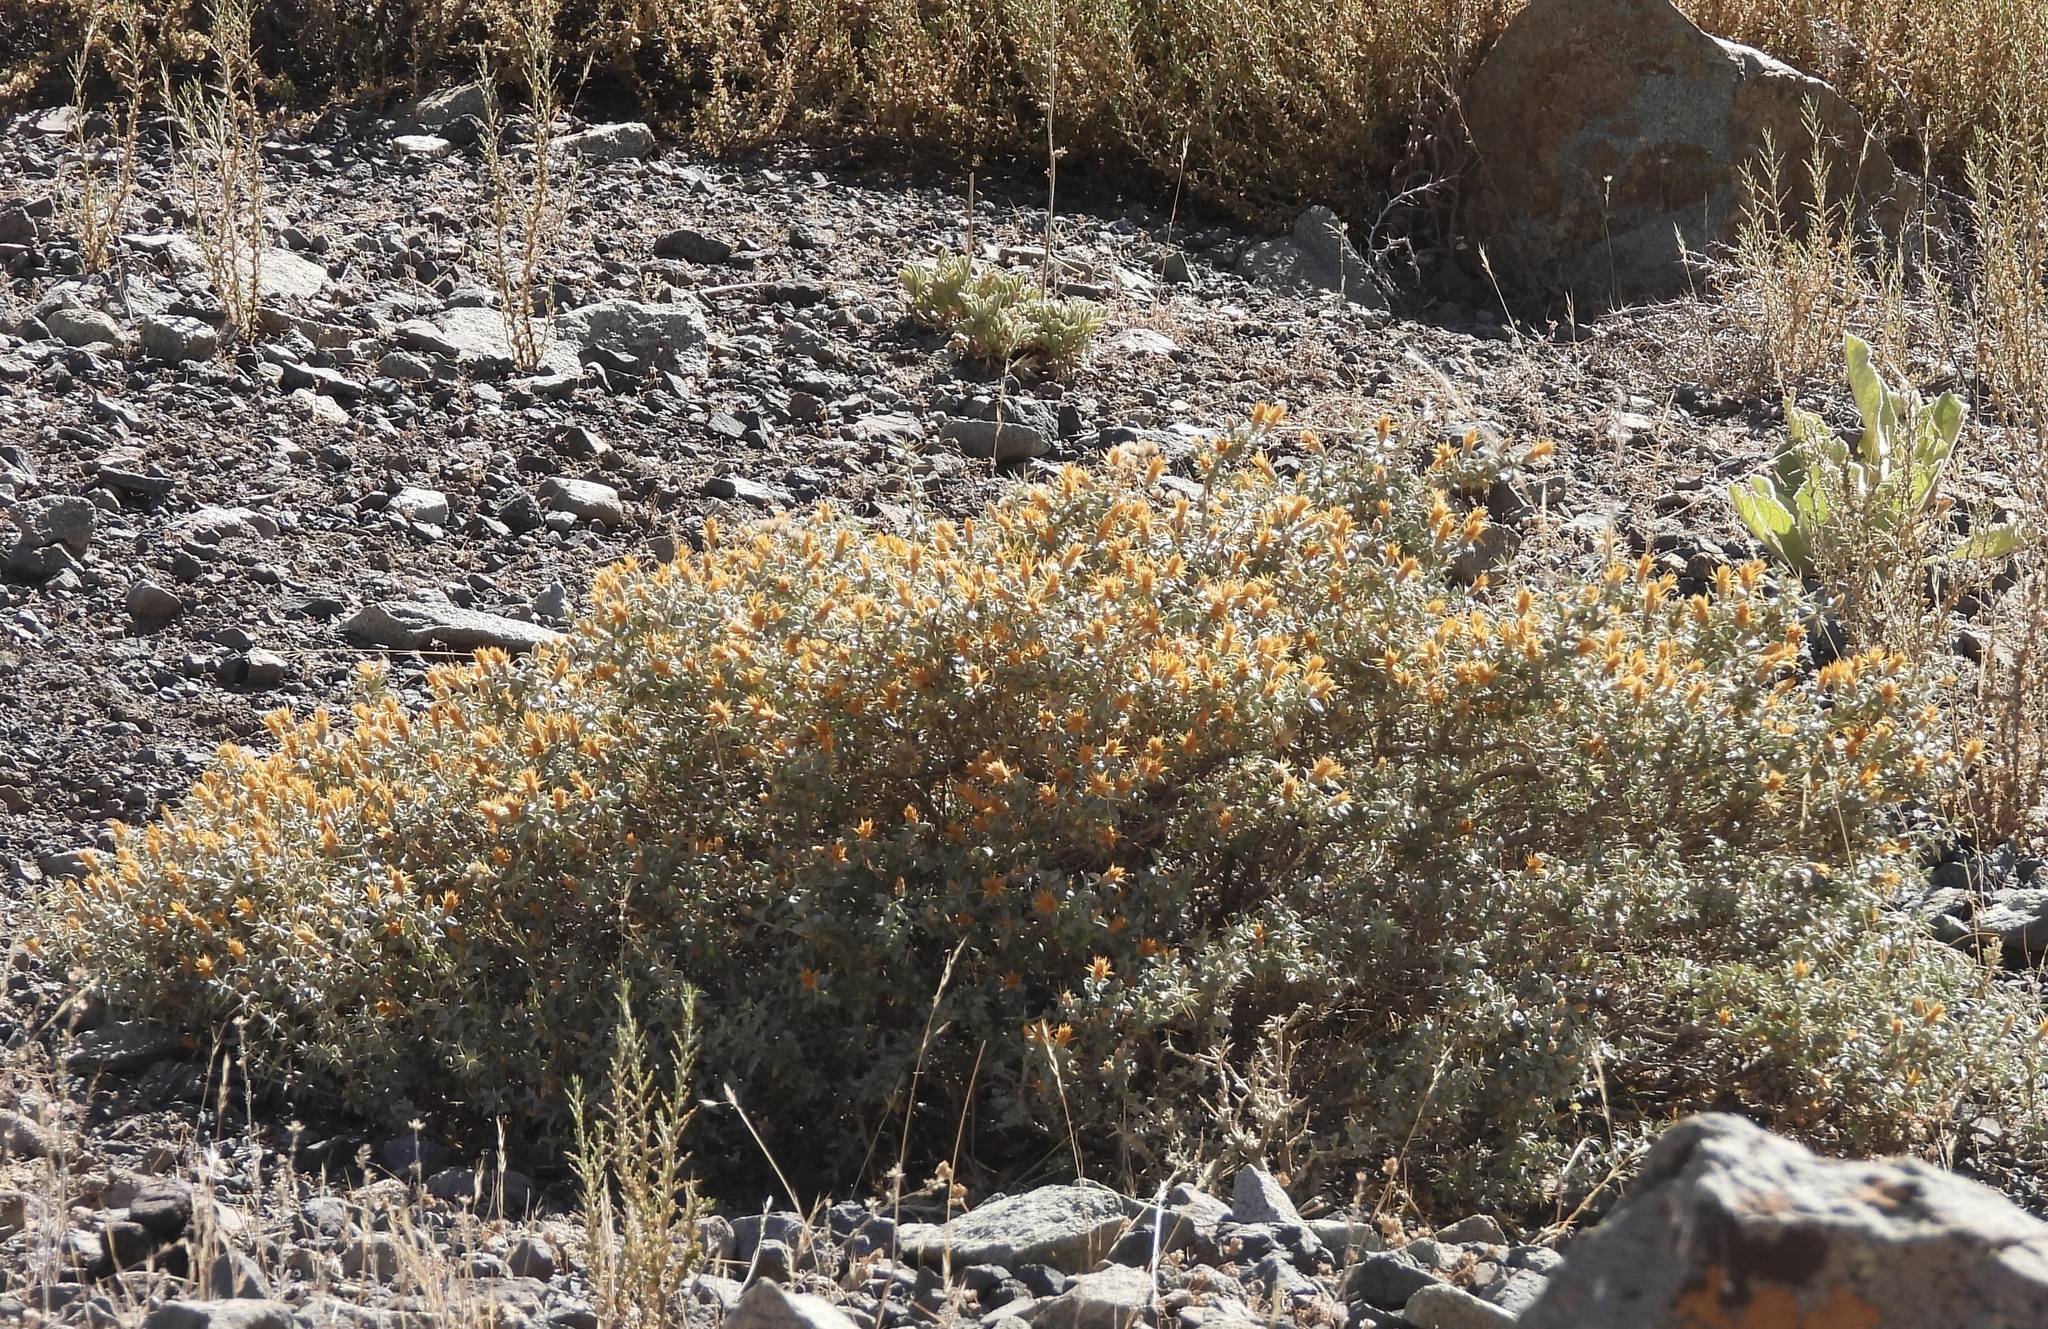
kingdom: Plantae
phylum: Tracheophyta
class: Magnoliopsida
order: Asterales
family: Asteraceae
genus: Chuquiraga
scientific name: Chuquiraga oppositifolia
